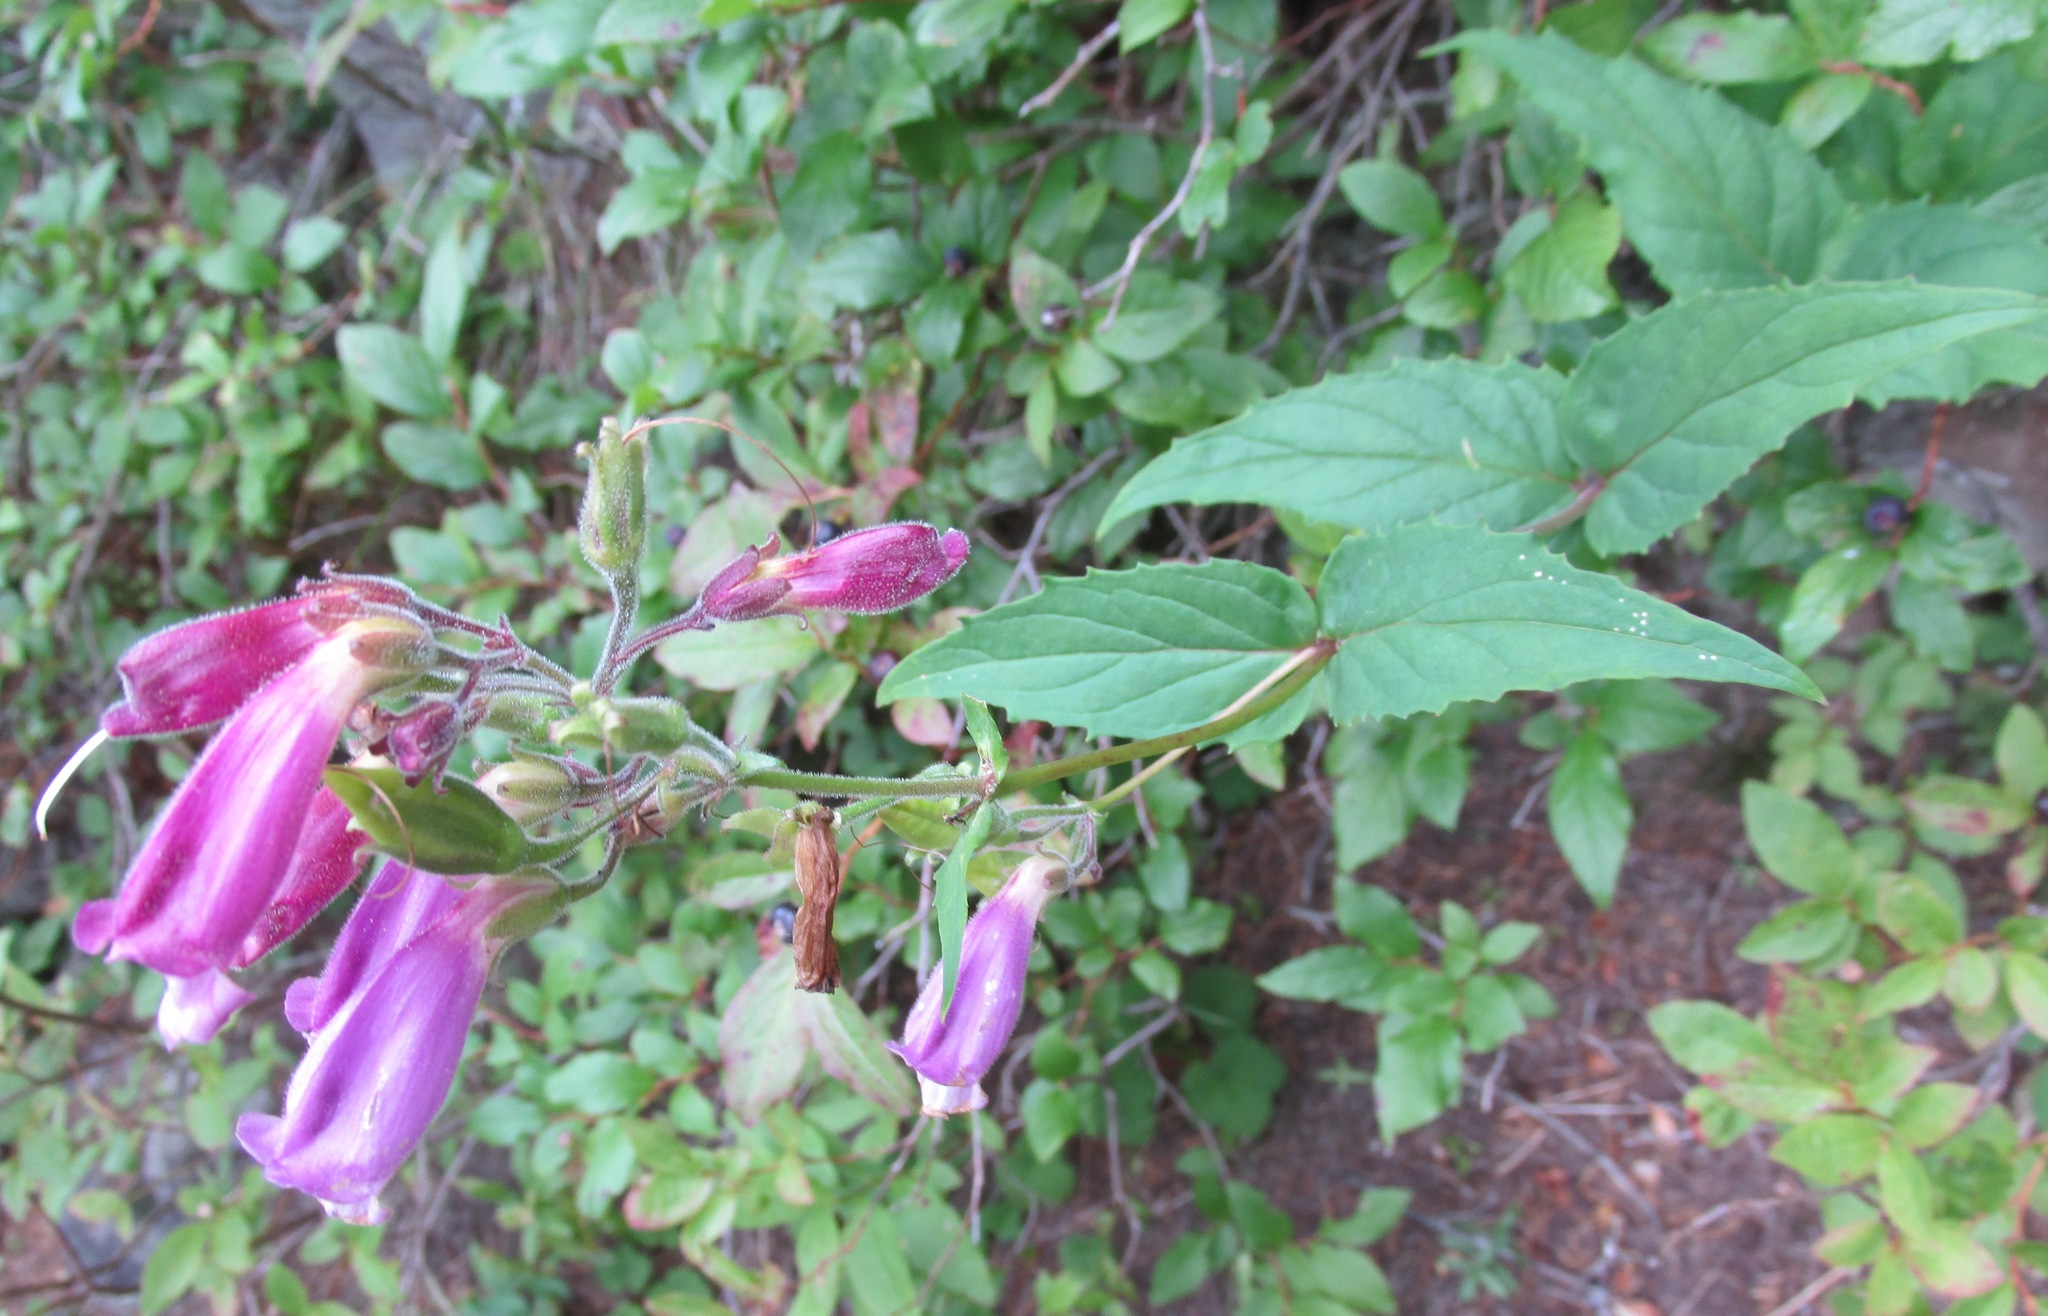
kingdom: Plantae
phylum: Tracheophyta
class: Magnoliopsida
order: Lamiales
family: Plantaginaceae
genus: Nothochelone
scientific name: Nothochelone nemorosa
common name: Woodland beardtongue
